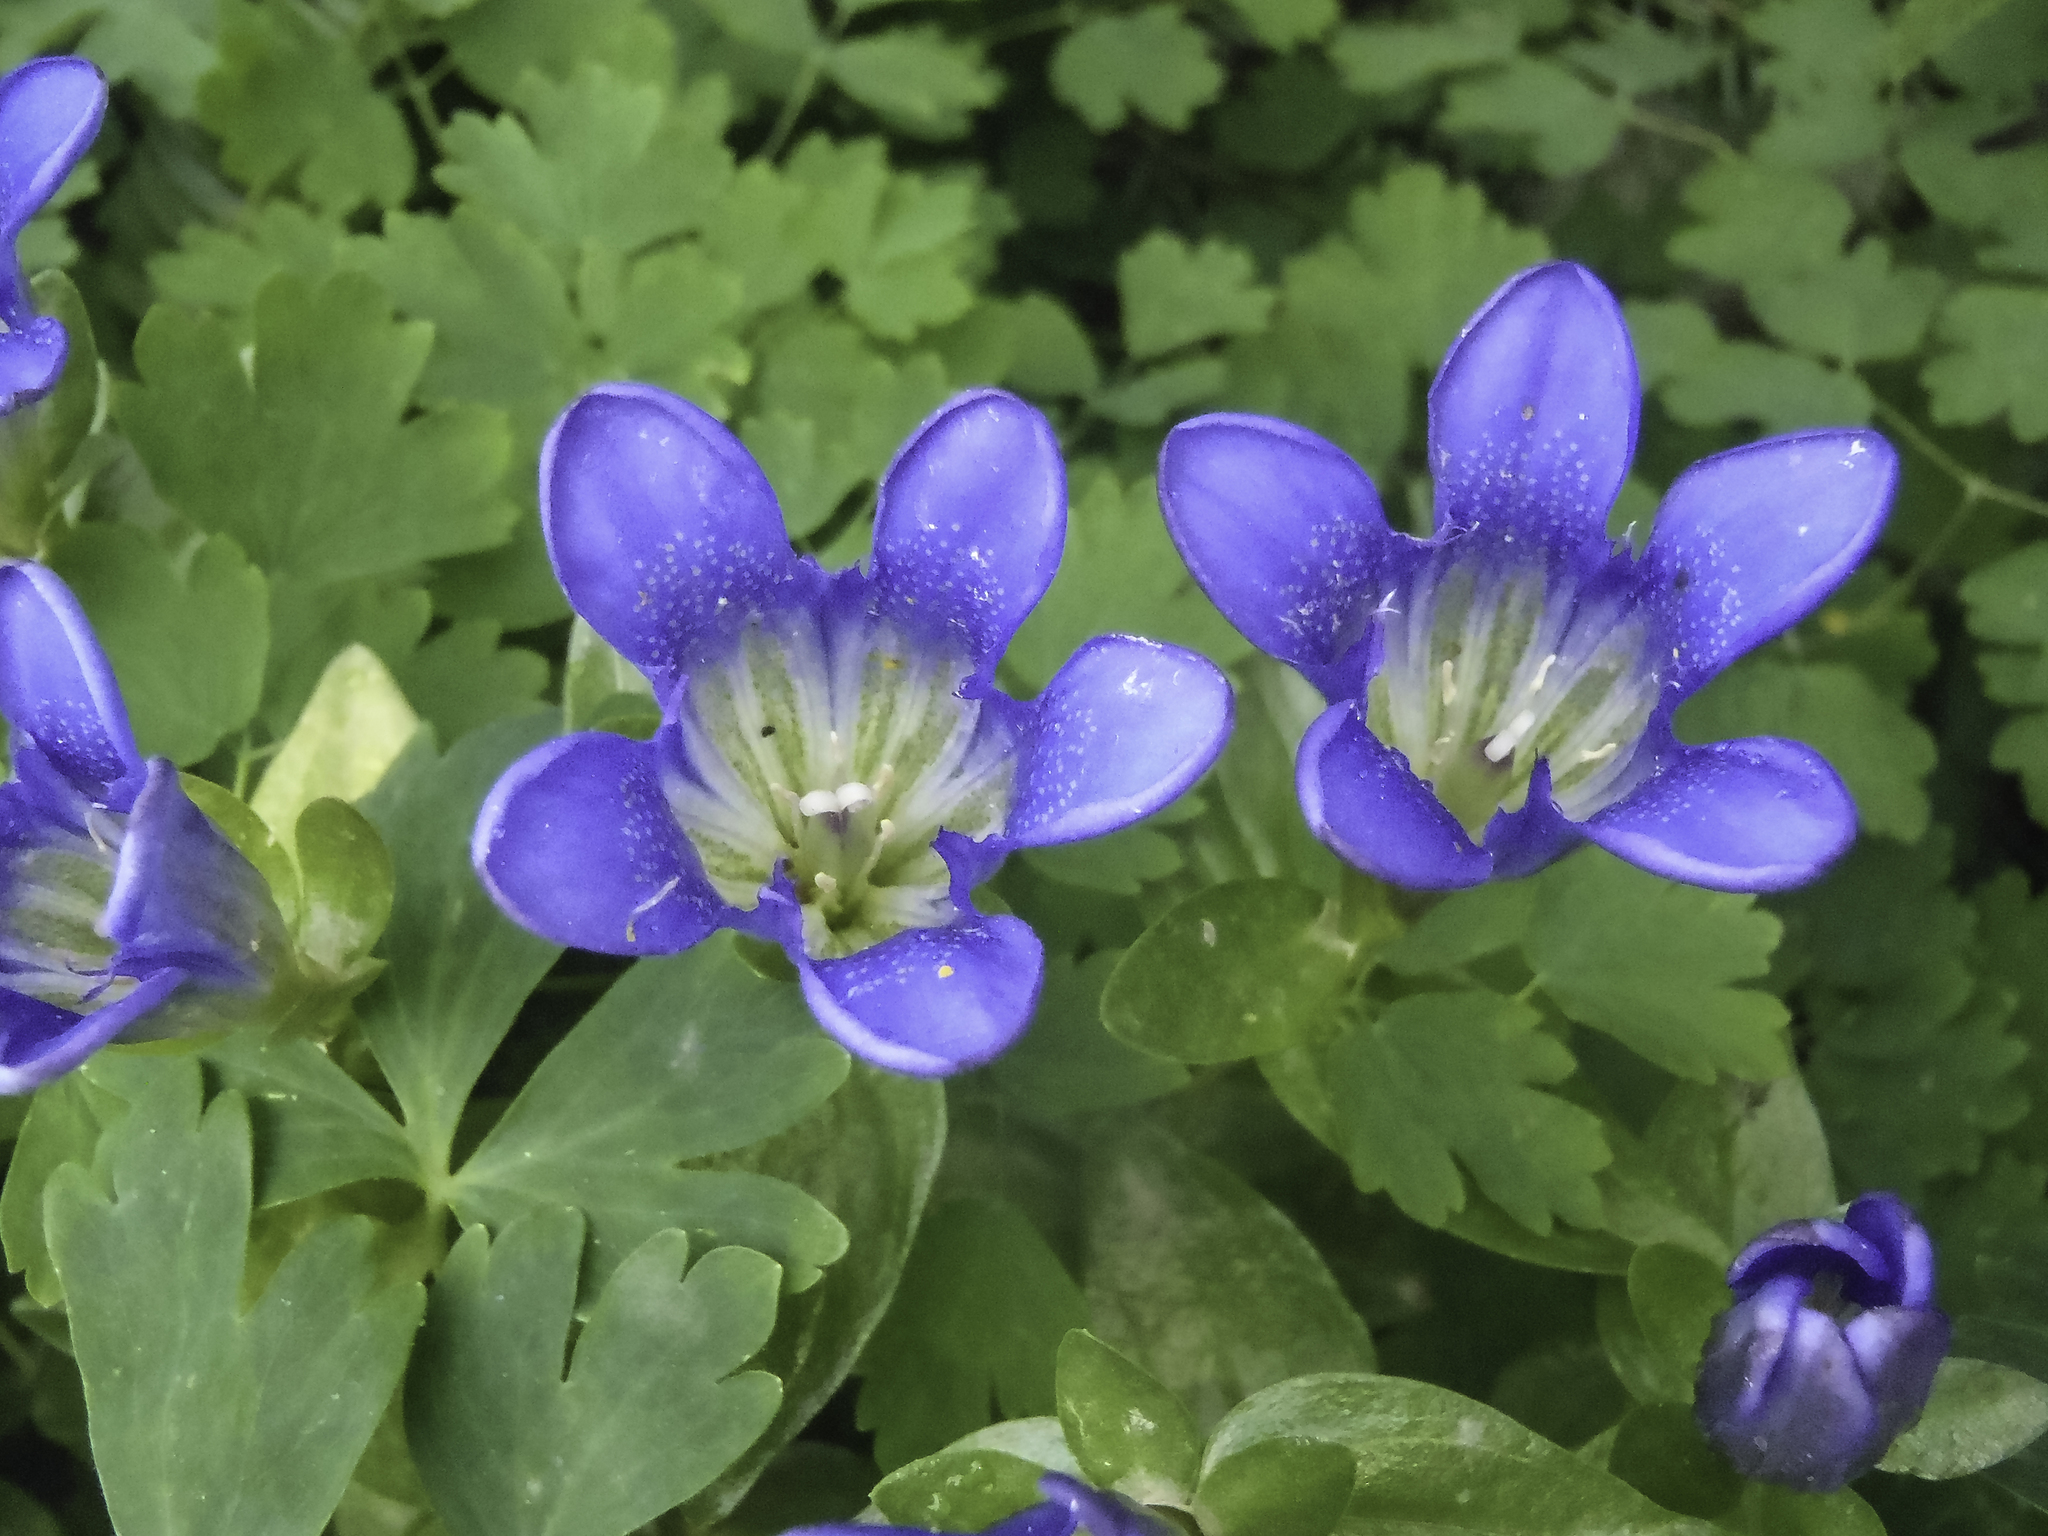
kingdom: Plantae
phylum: Tracheophyta
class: Magnoliopsida
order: Gentianales
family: Gentianaceae
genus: Gentiana
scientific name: Gentiana calycosa
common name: Rainier pleated gentian
